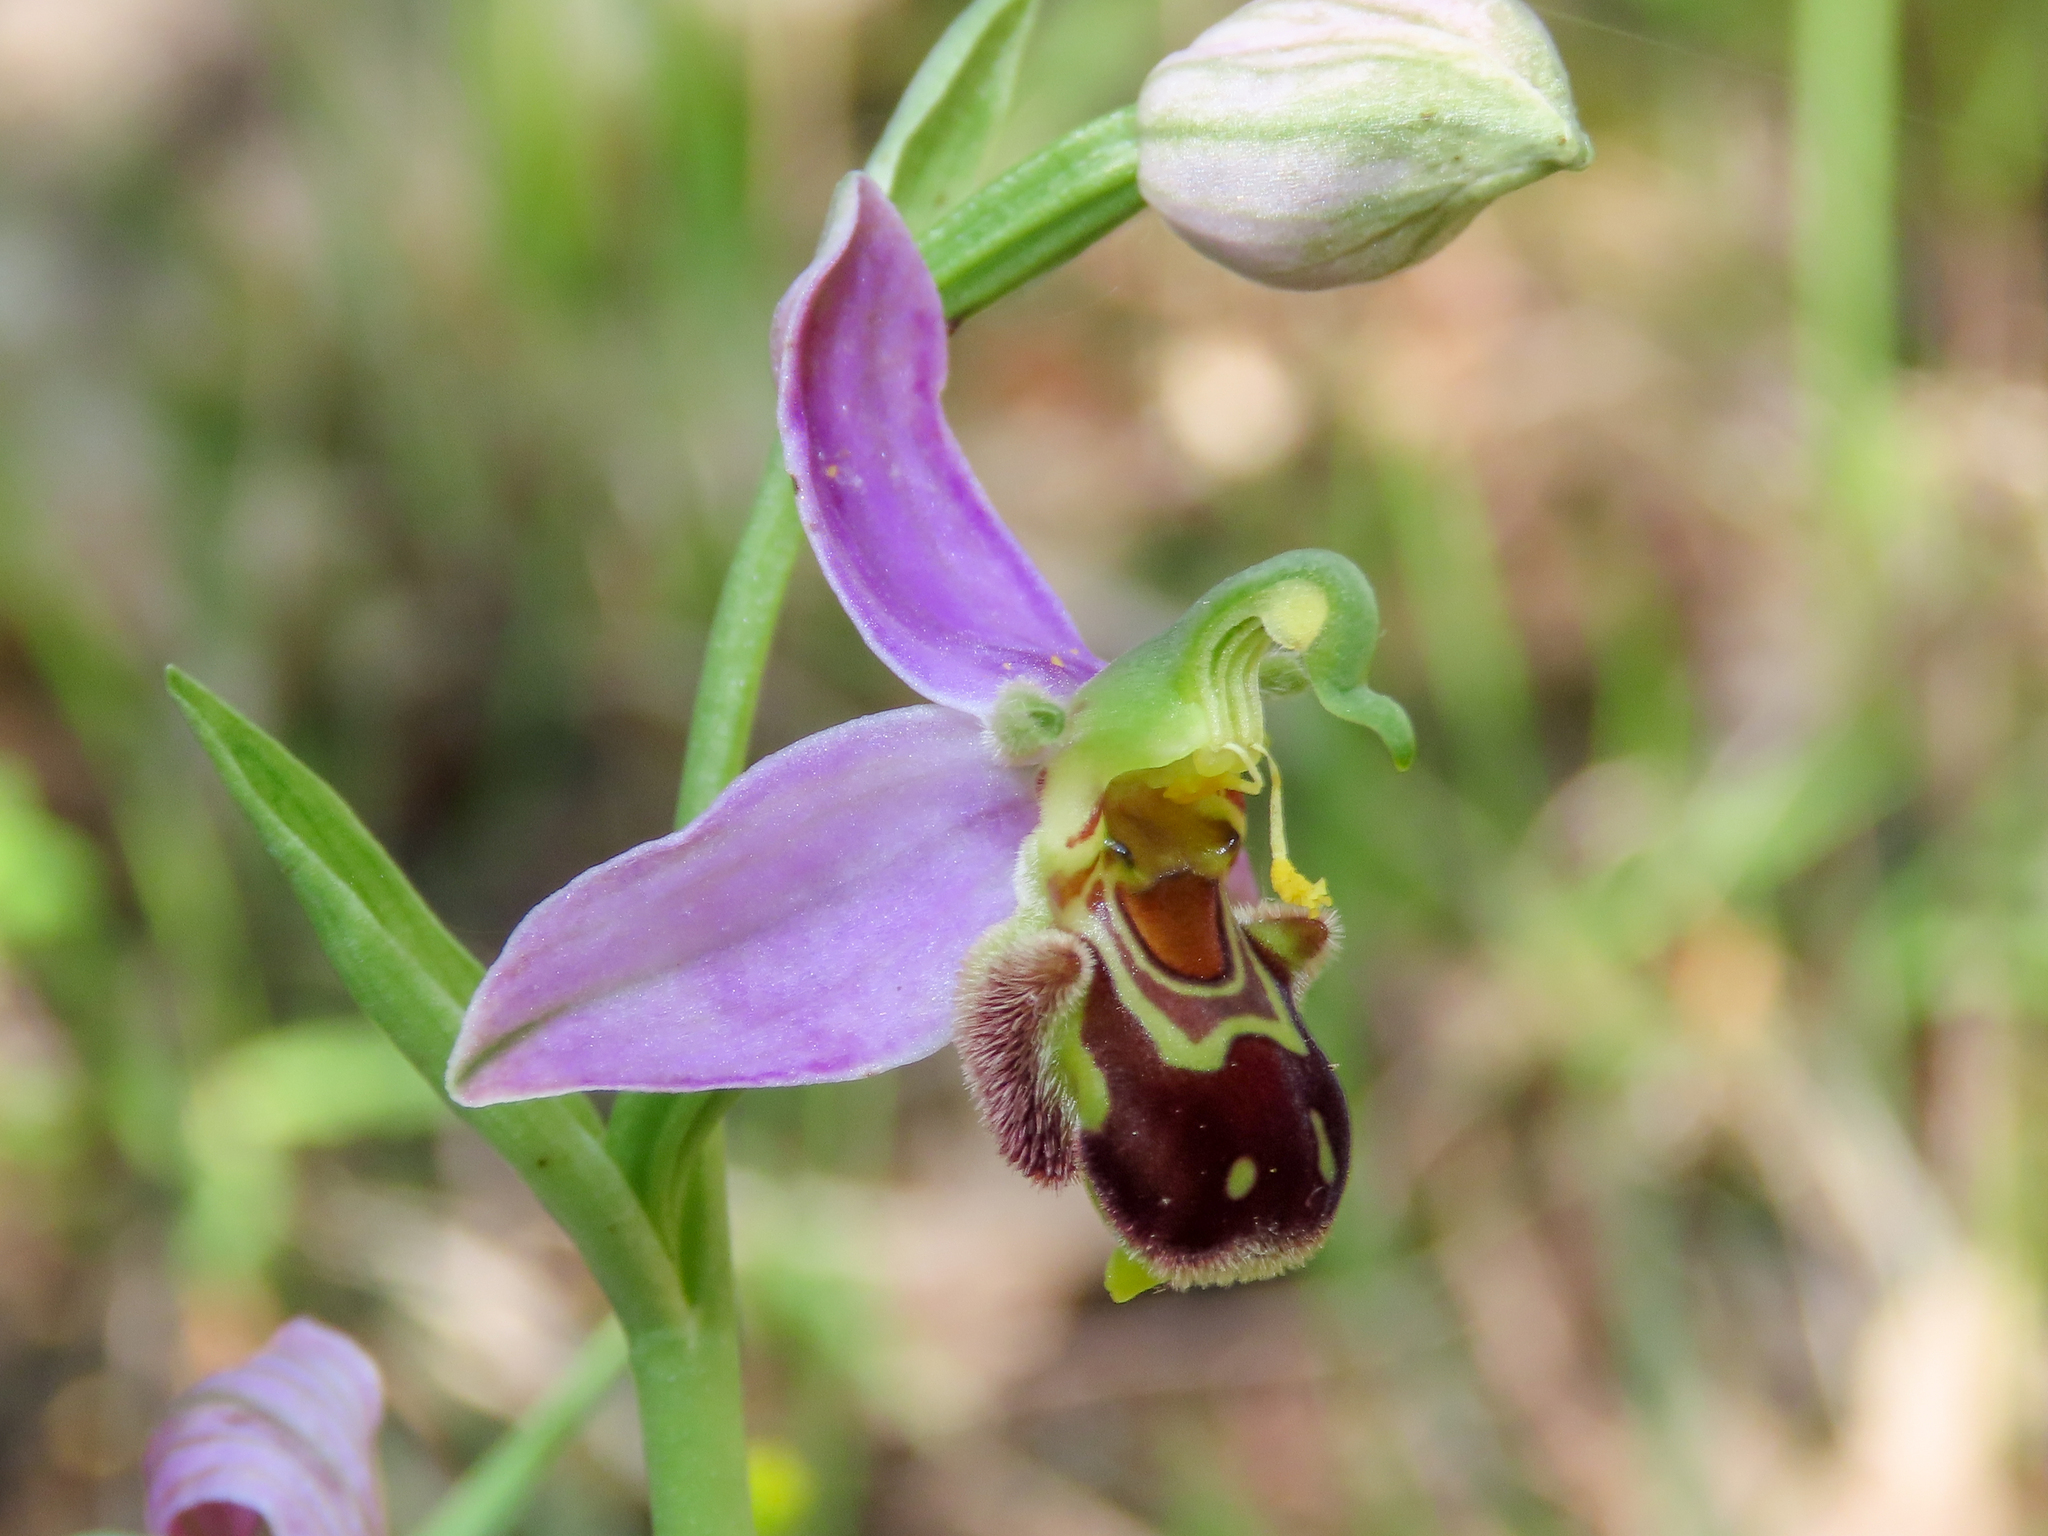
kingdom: Plantae
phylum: Tracheophyta
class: Liliopsida
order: Asparagales
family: Orchidaceae
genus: Ophrys
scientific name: Ophrys apifera
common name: Bee orchid
